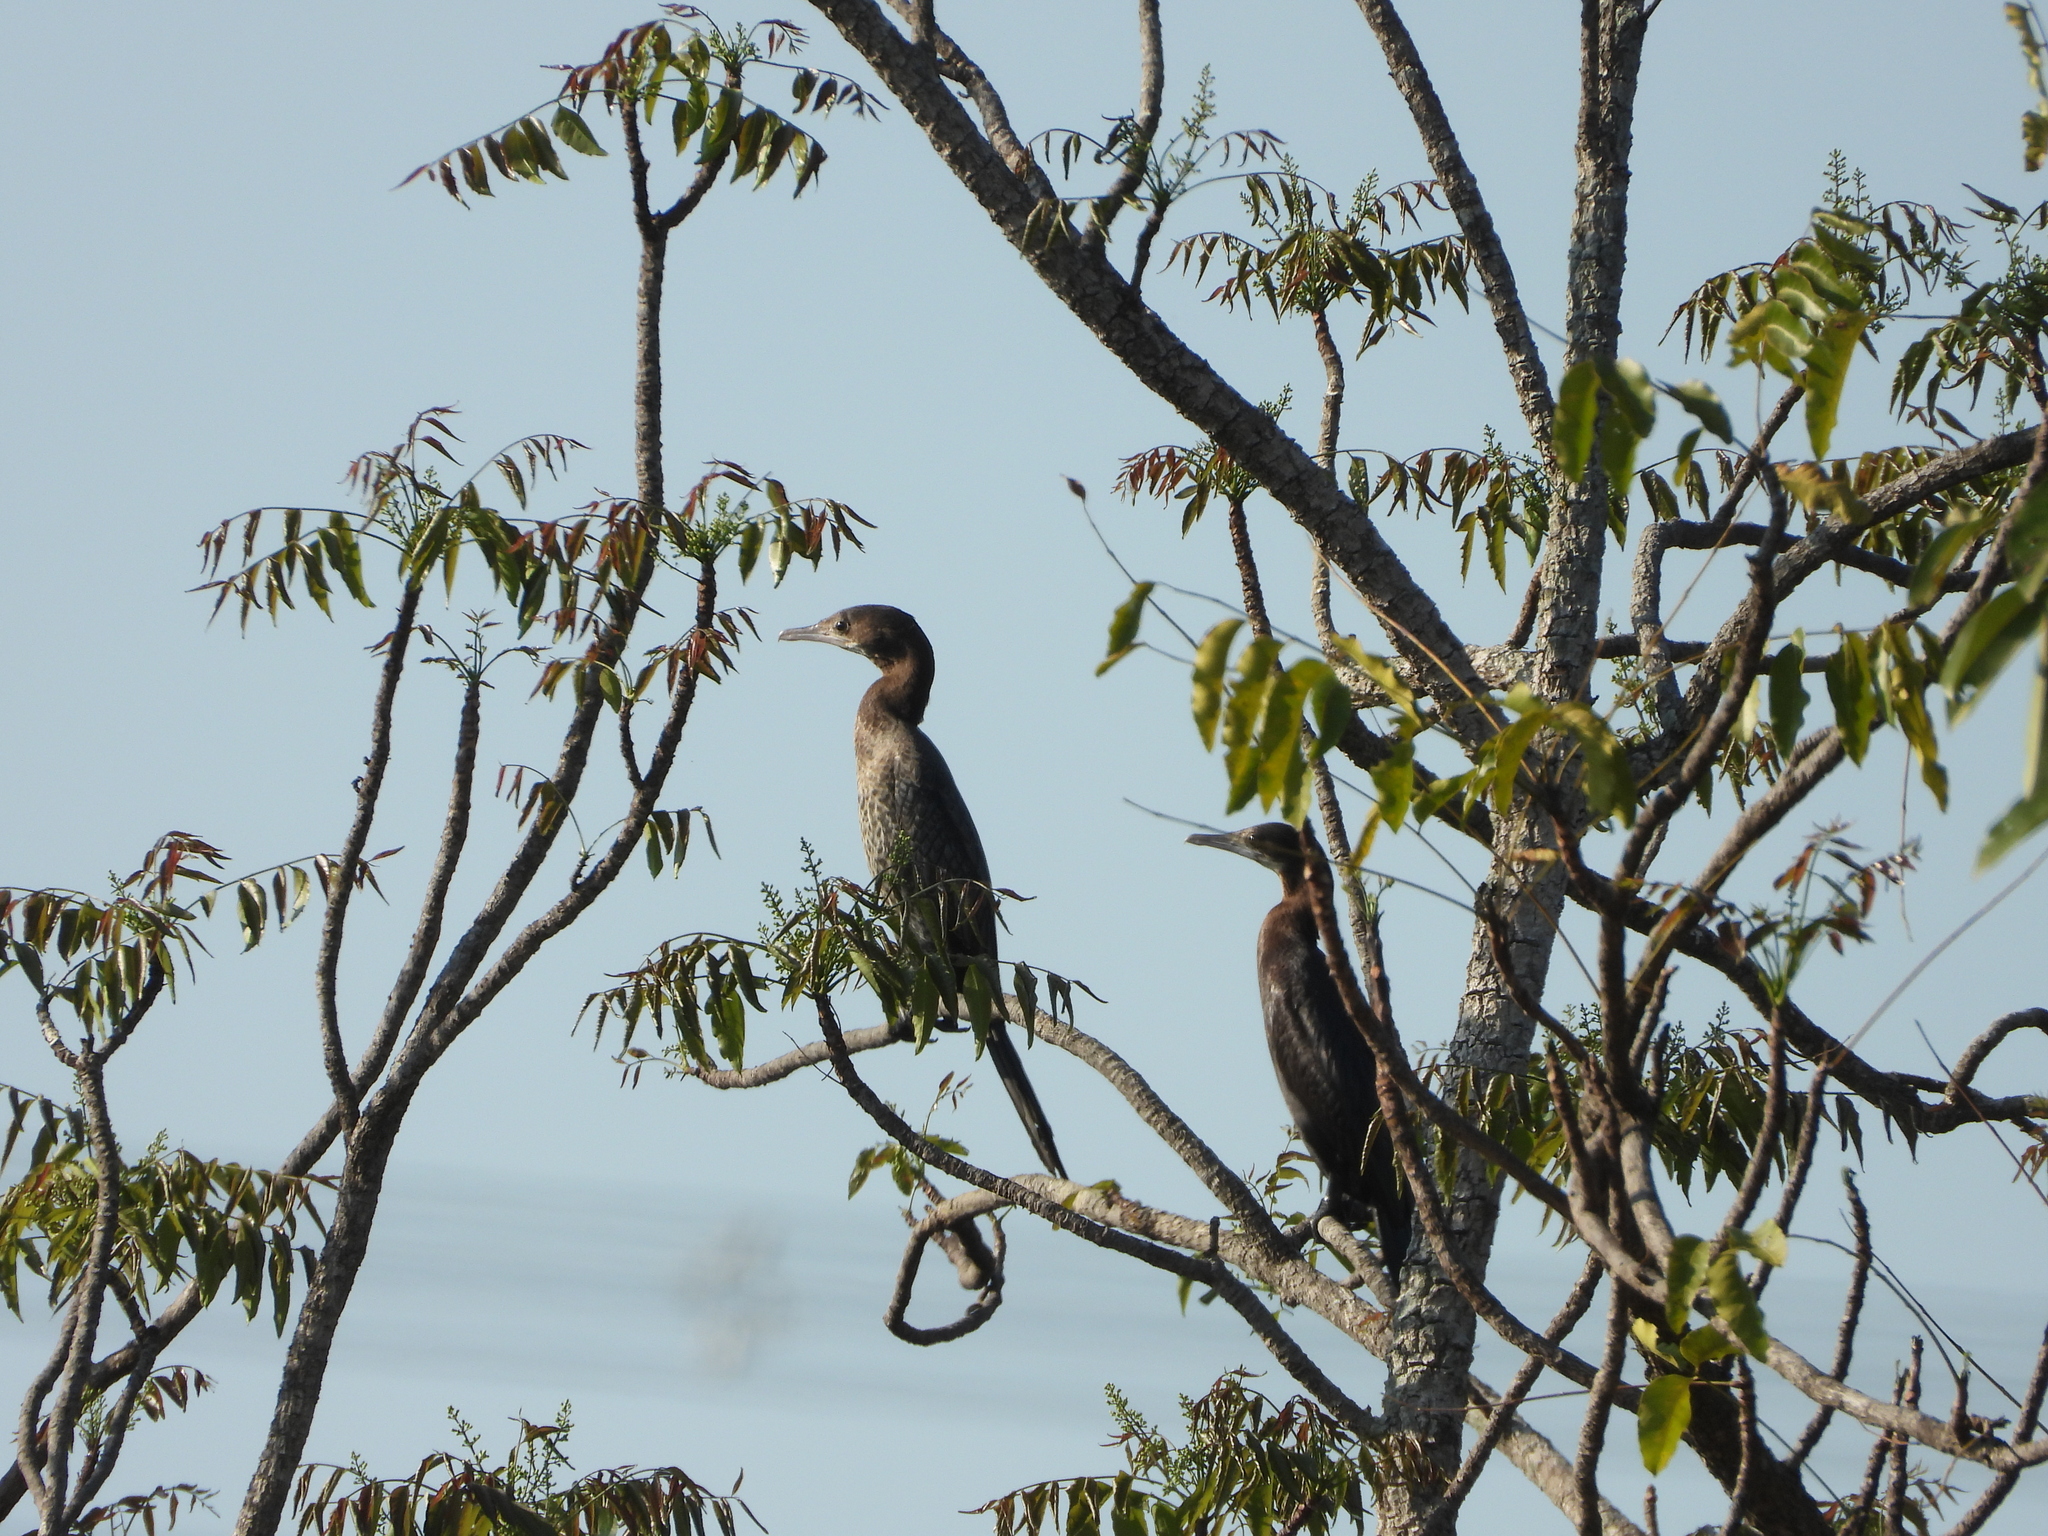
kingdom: Animalia
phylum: Chordata
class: Aves
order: Suliformes
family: Phalacrocoracidae
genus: Microcarbo
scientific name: Microcarbo niger
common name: Little cormorant
